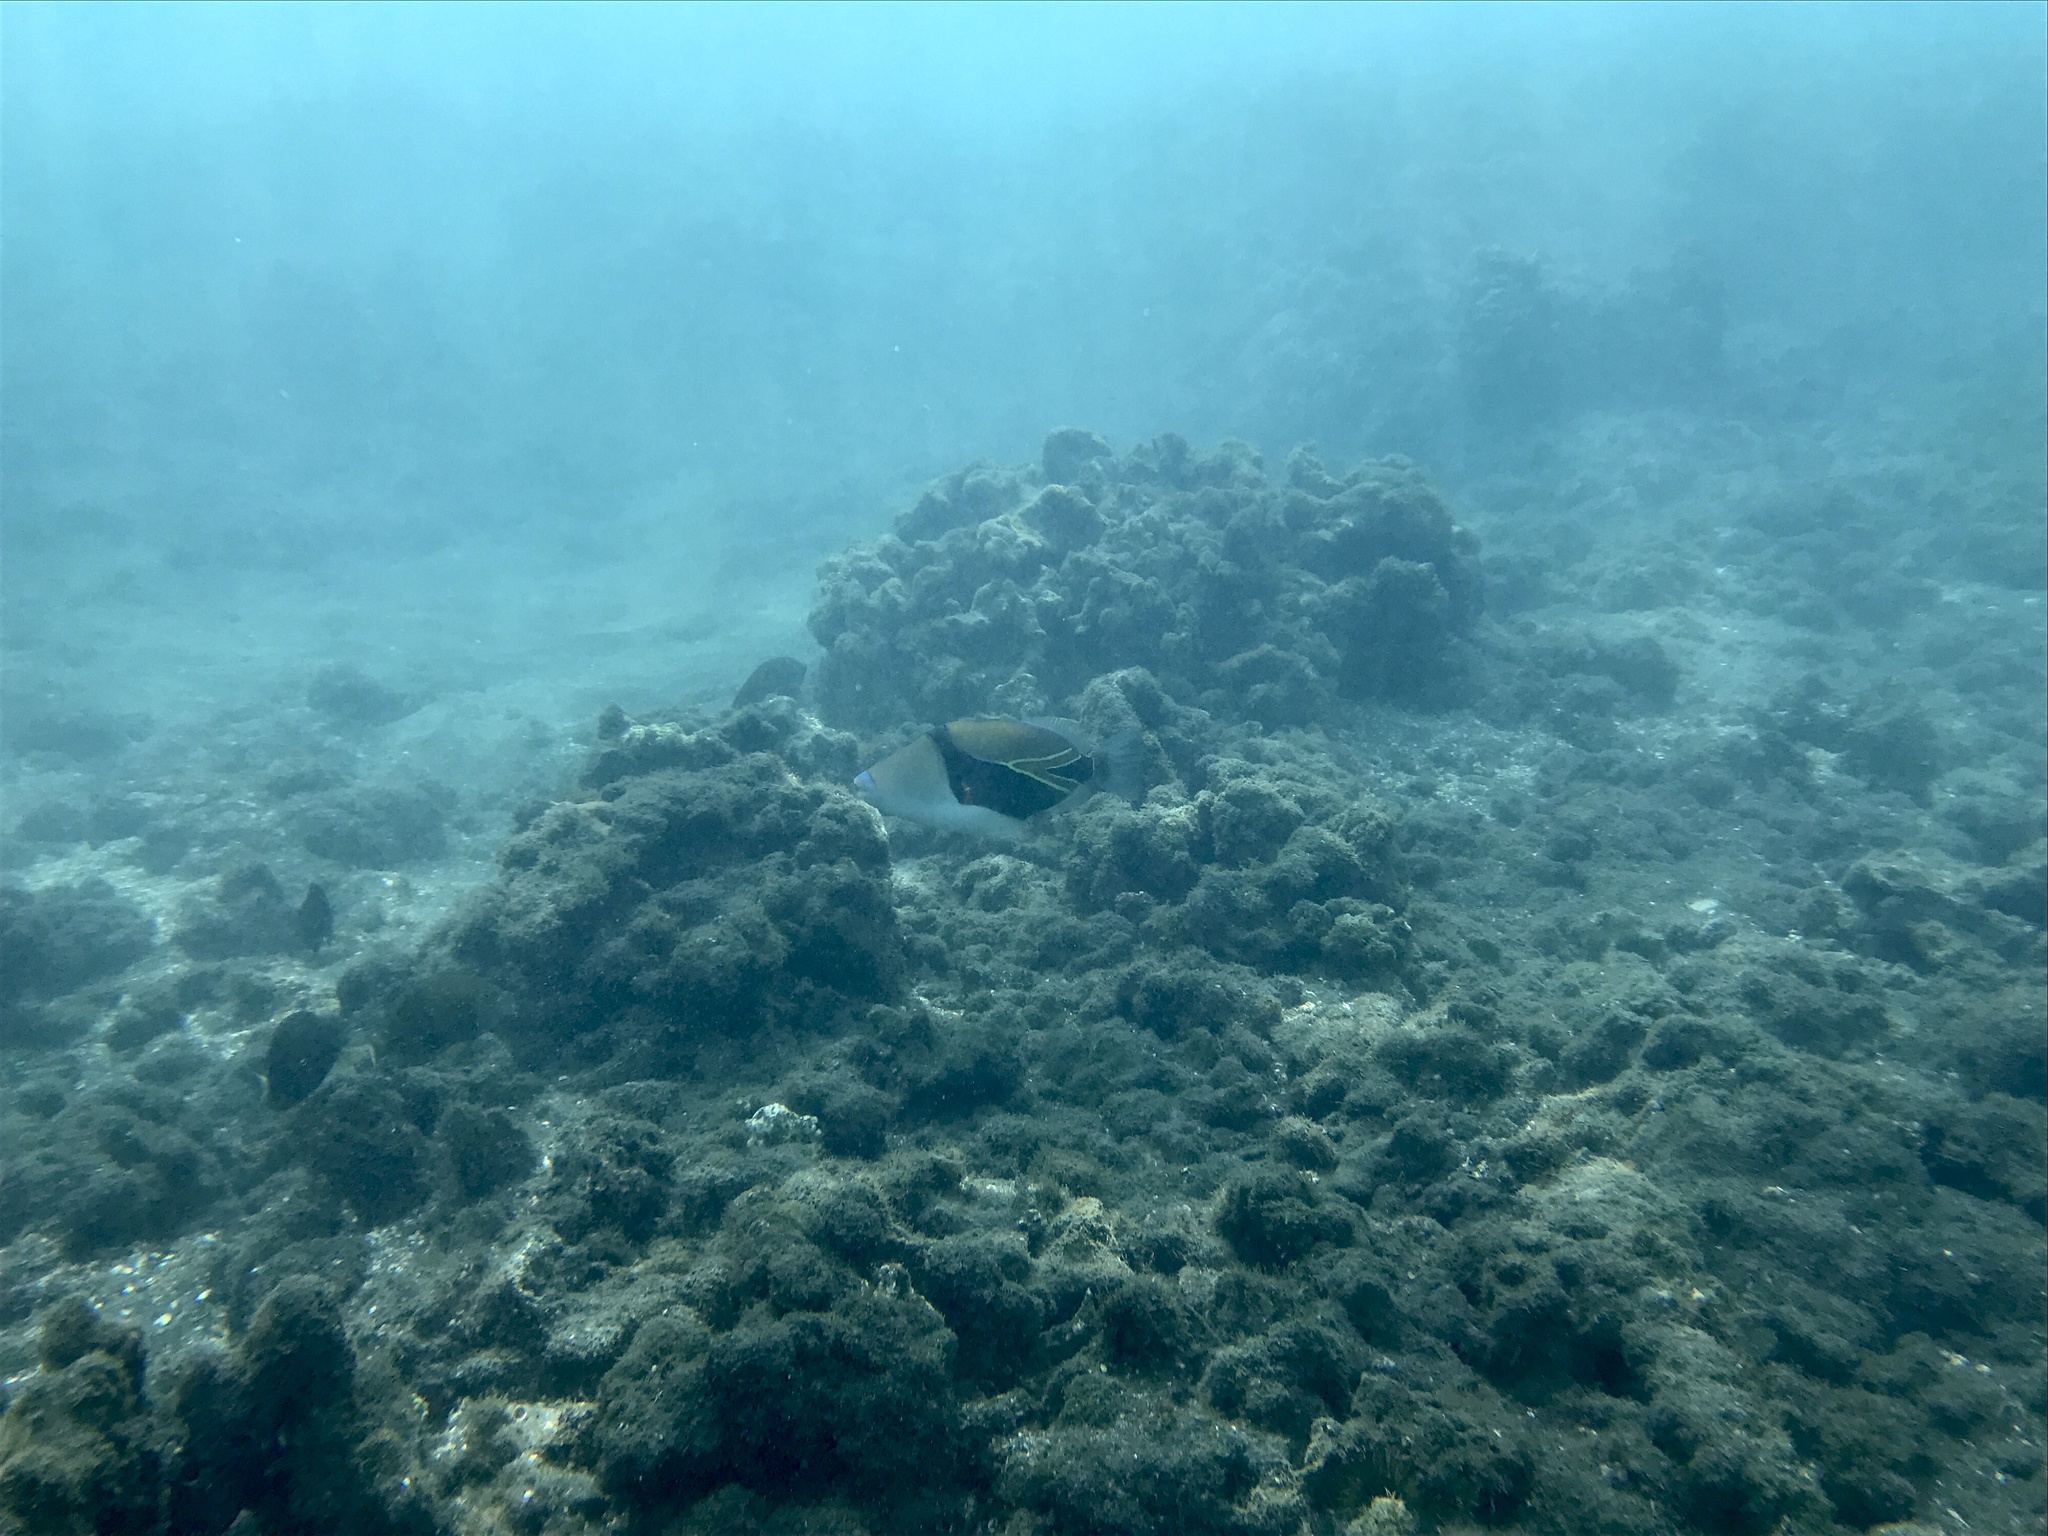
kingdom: Animalia
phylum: Chordata
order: Tetraodontiformes
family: Balistidae
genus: Rhinecanthus
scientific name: Rhinecanthus rectangulus
